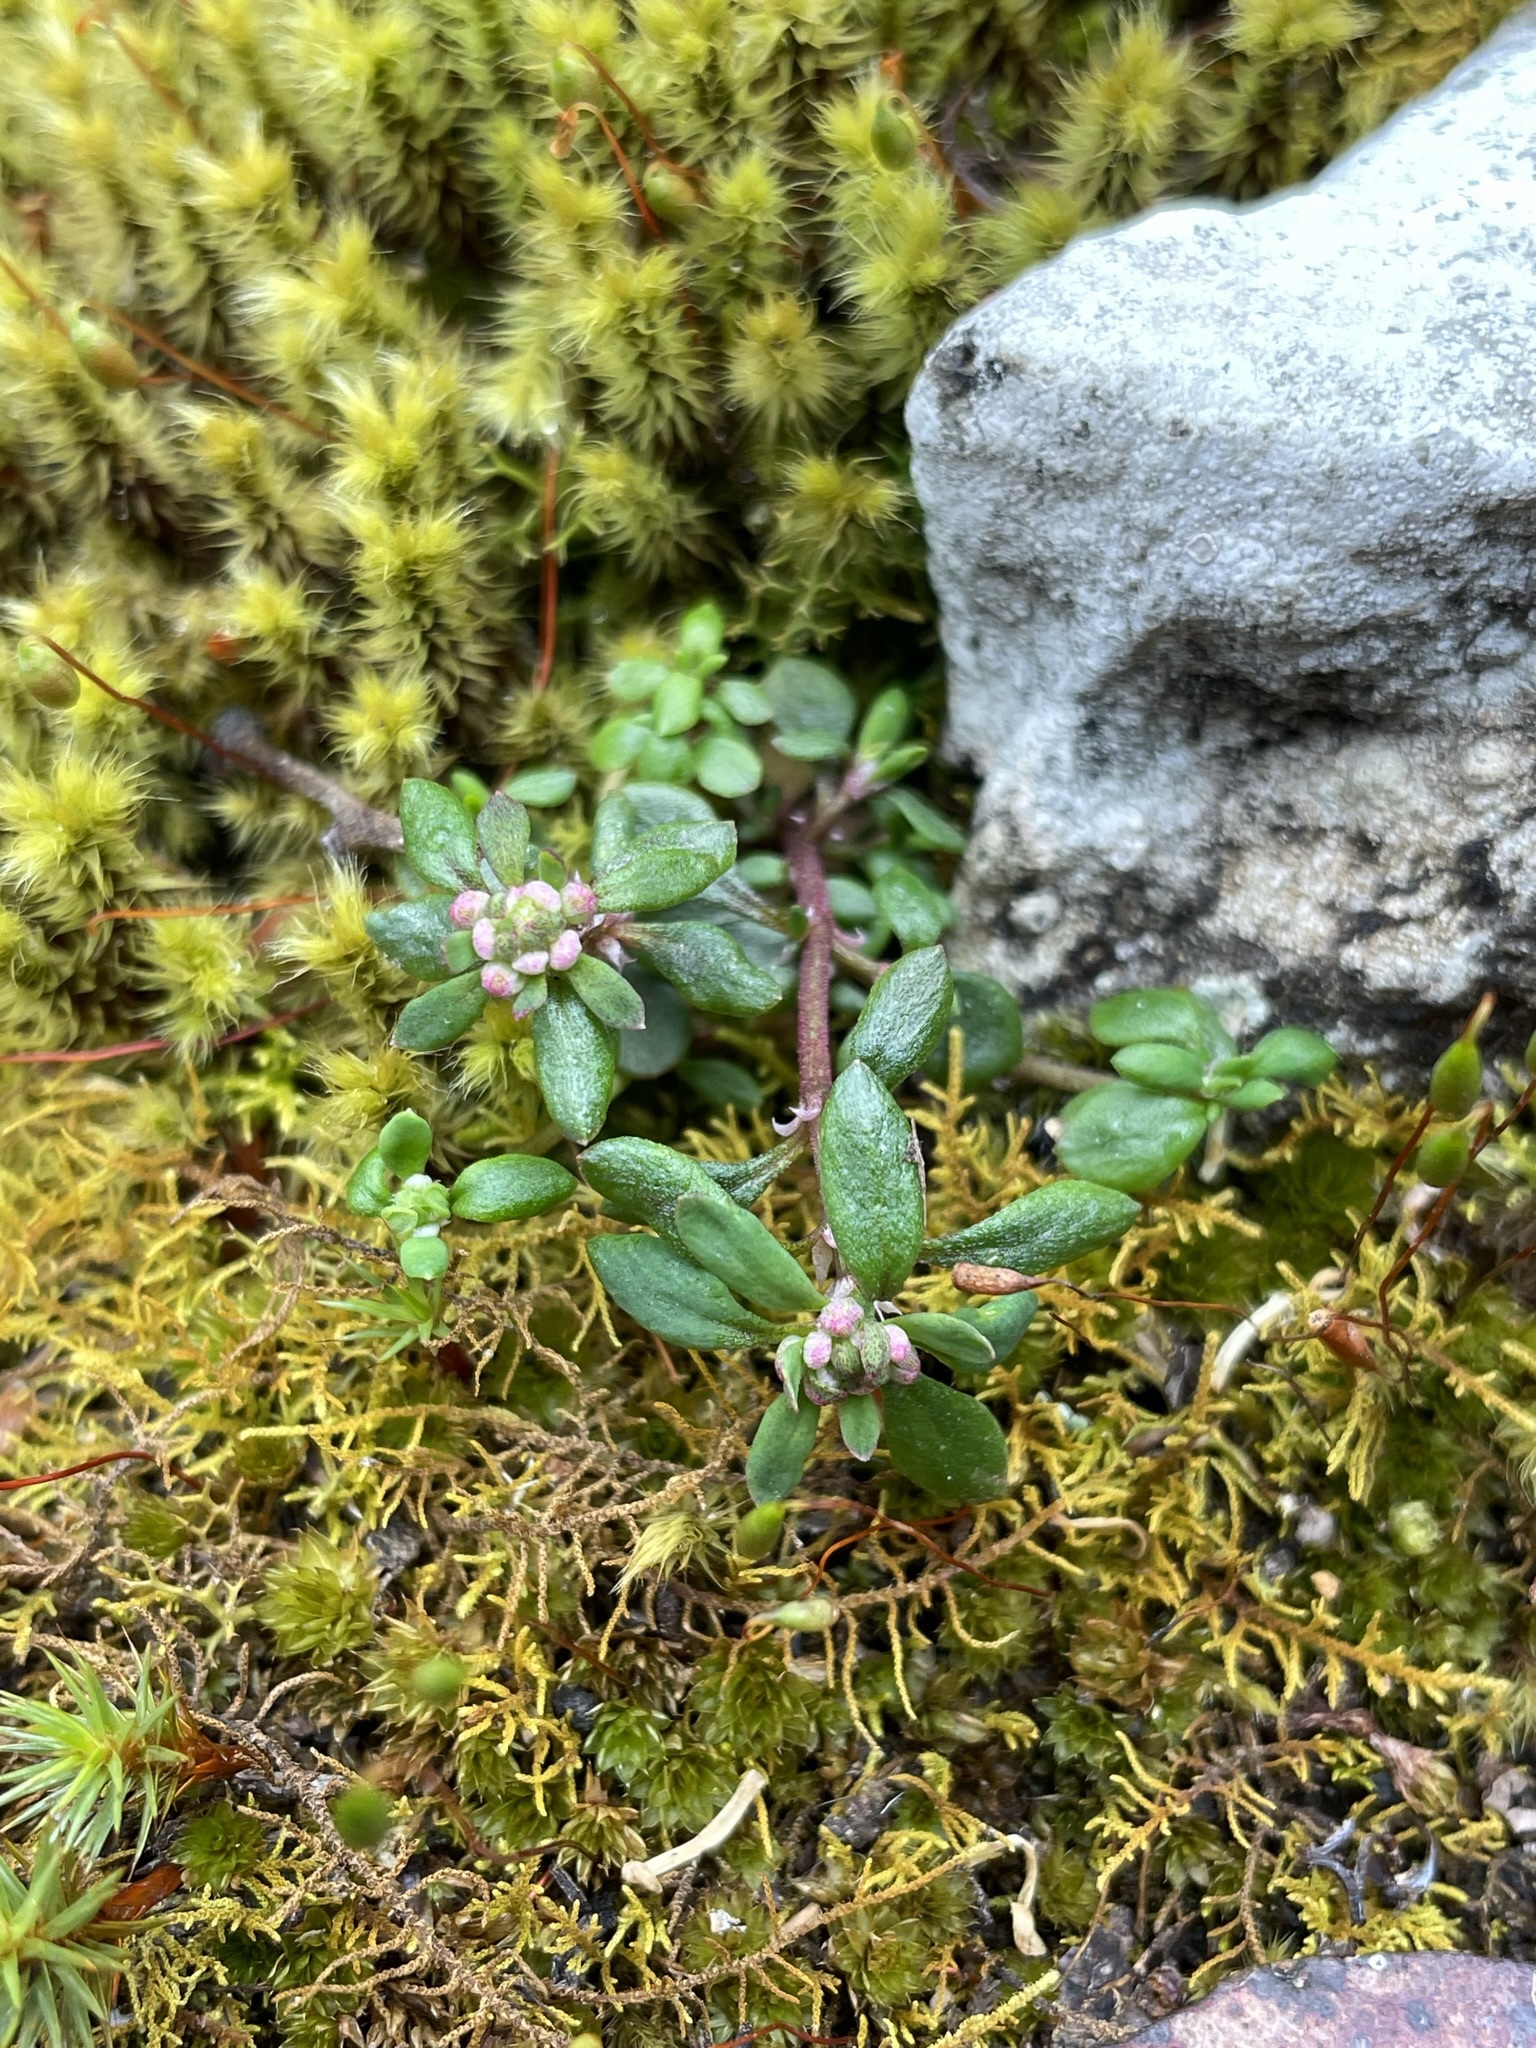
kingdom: Plantae
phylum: Tracheophyta
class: Magnoliopsida
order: Malpighiales
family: Phyllanthaceae
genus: Poranthera
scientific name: Poranthera microphylla
